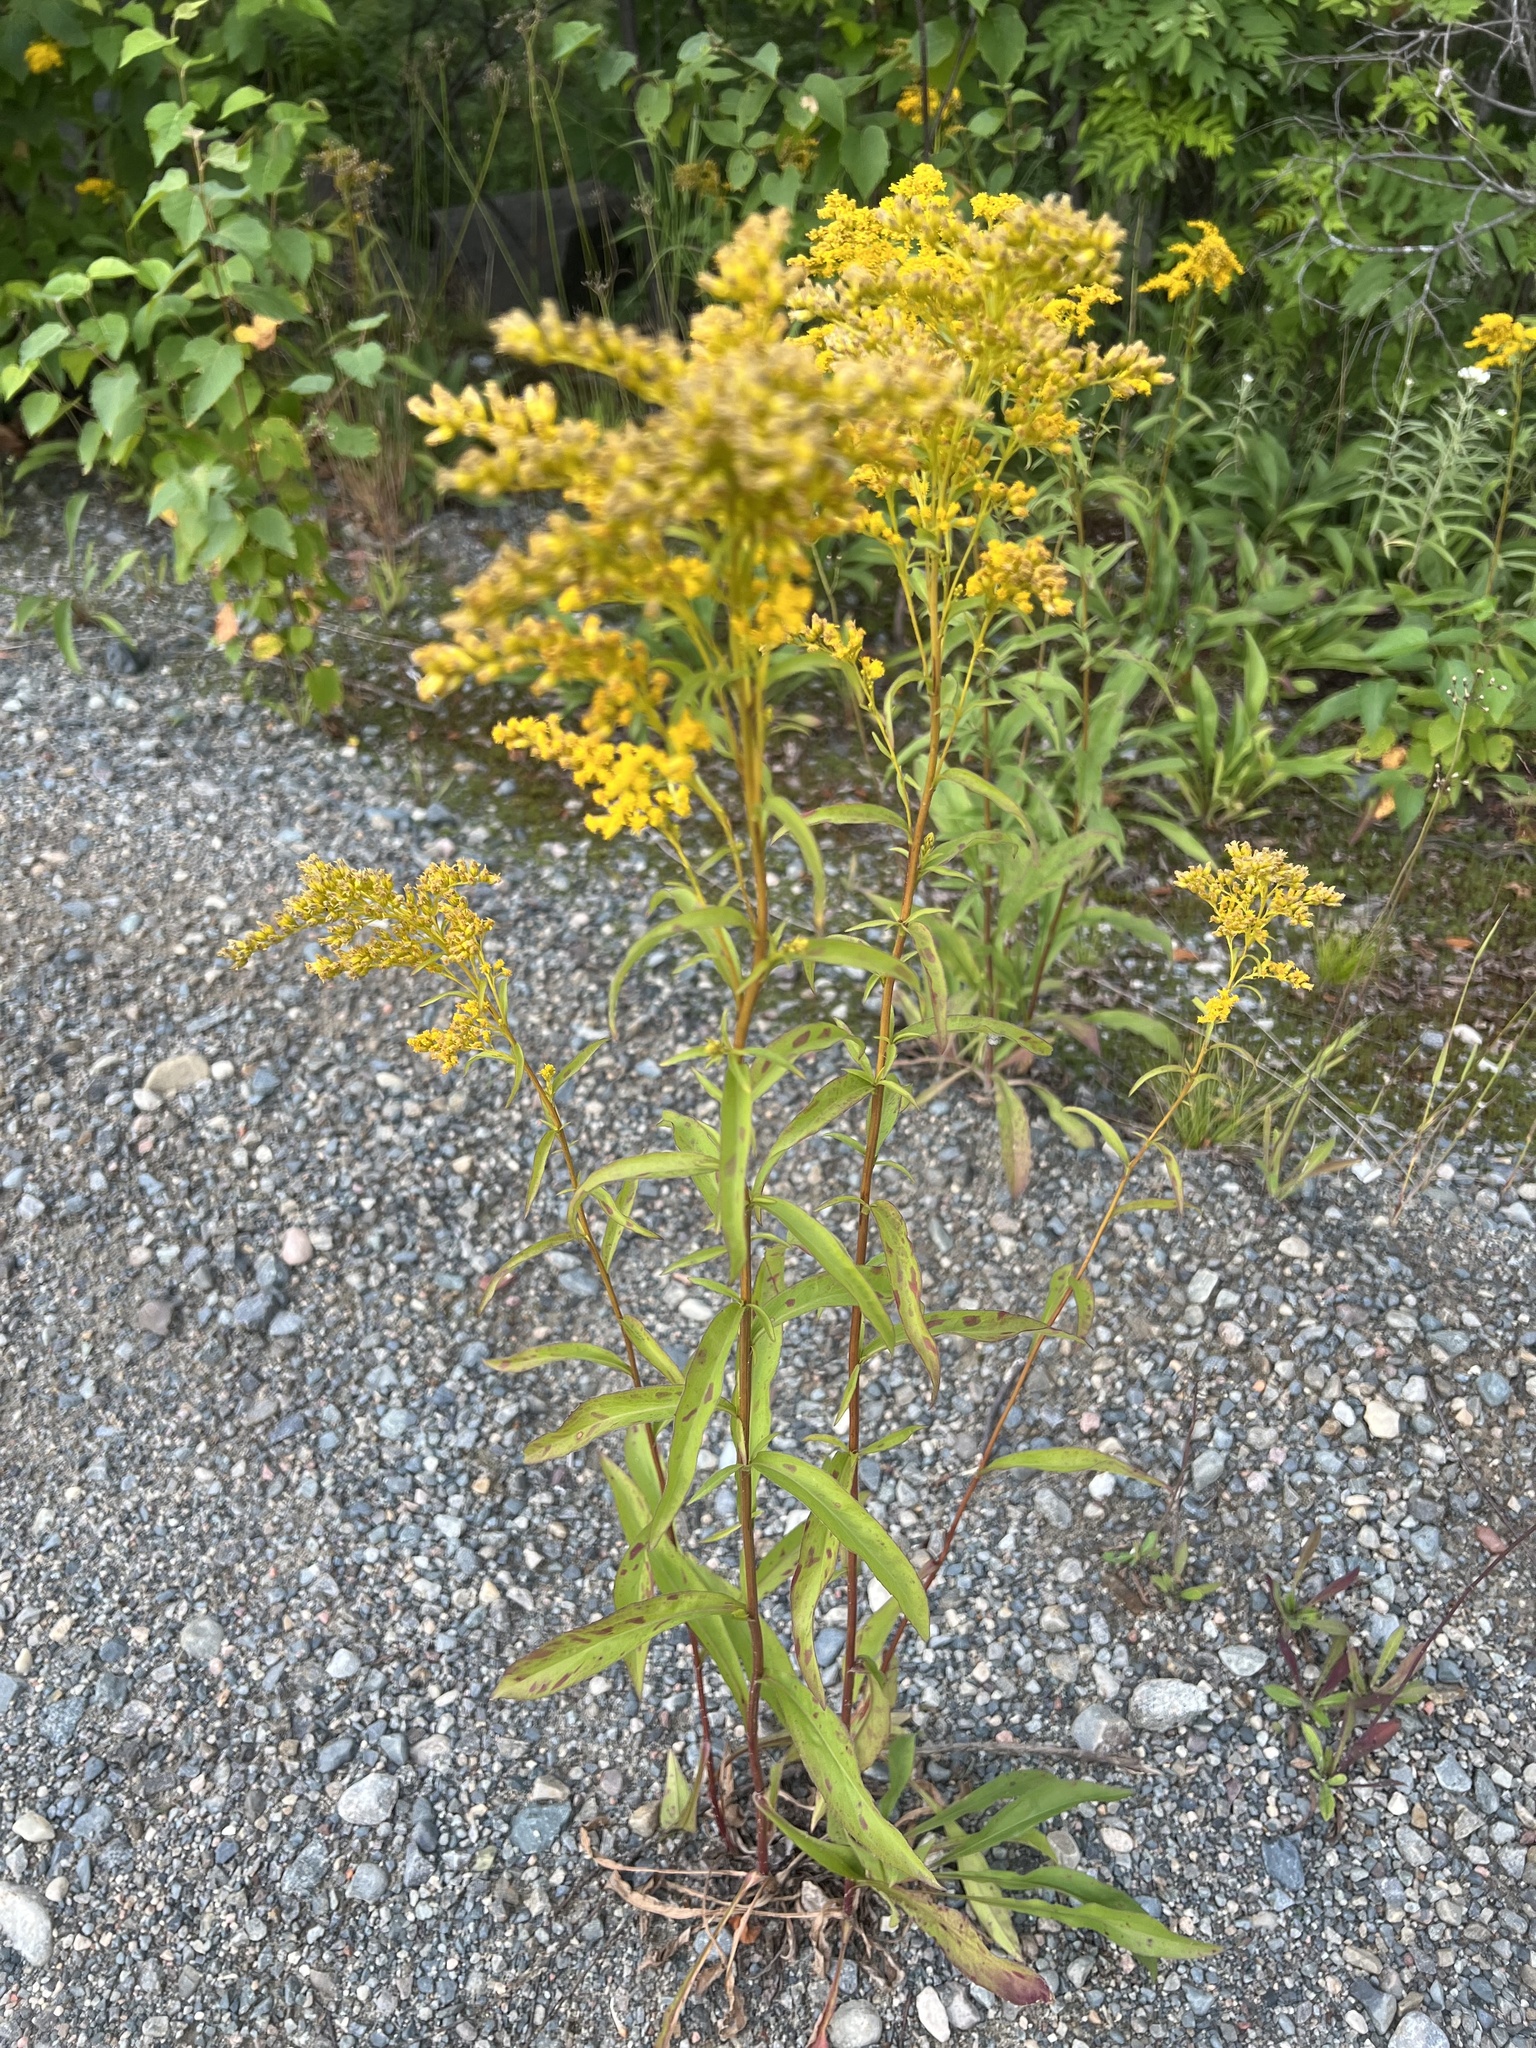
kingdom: Plantae
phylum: Tracheophyta
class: Magnoliopsida
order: Asterales
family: Asteraceae
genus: Solidago
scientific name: Solidago juncea
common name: Early goldenrod
